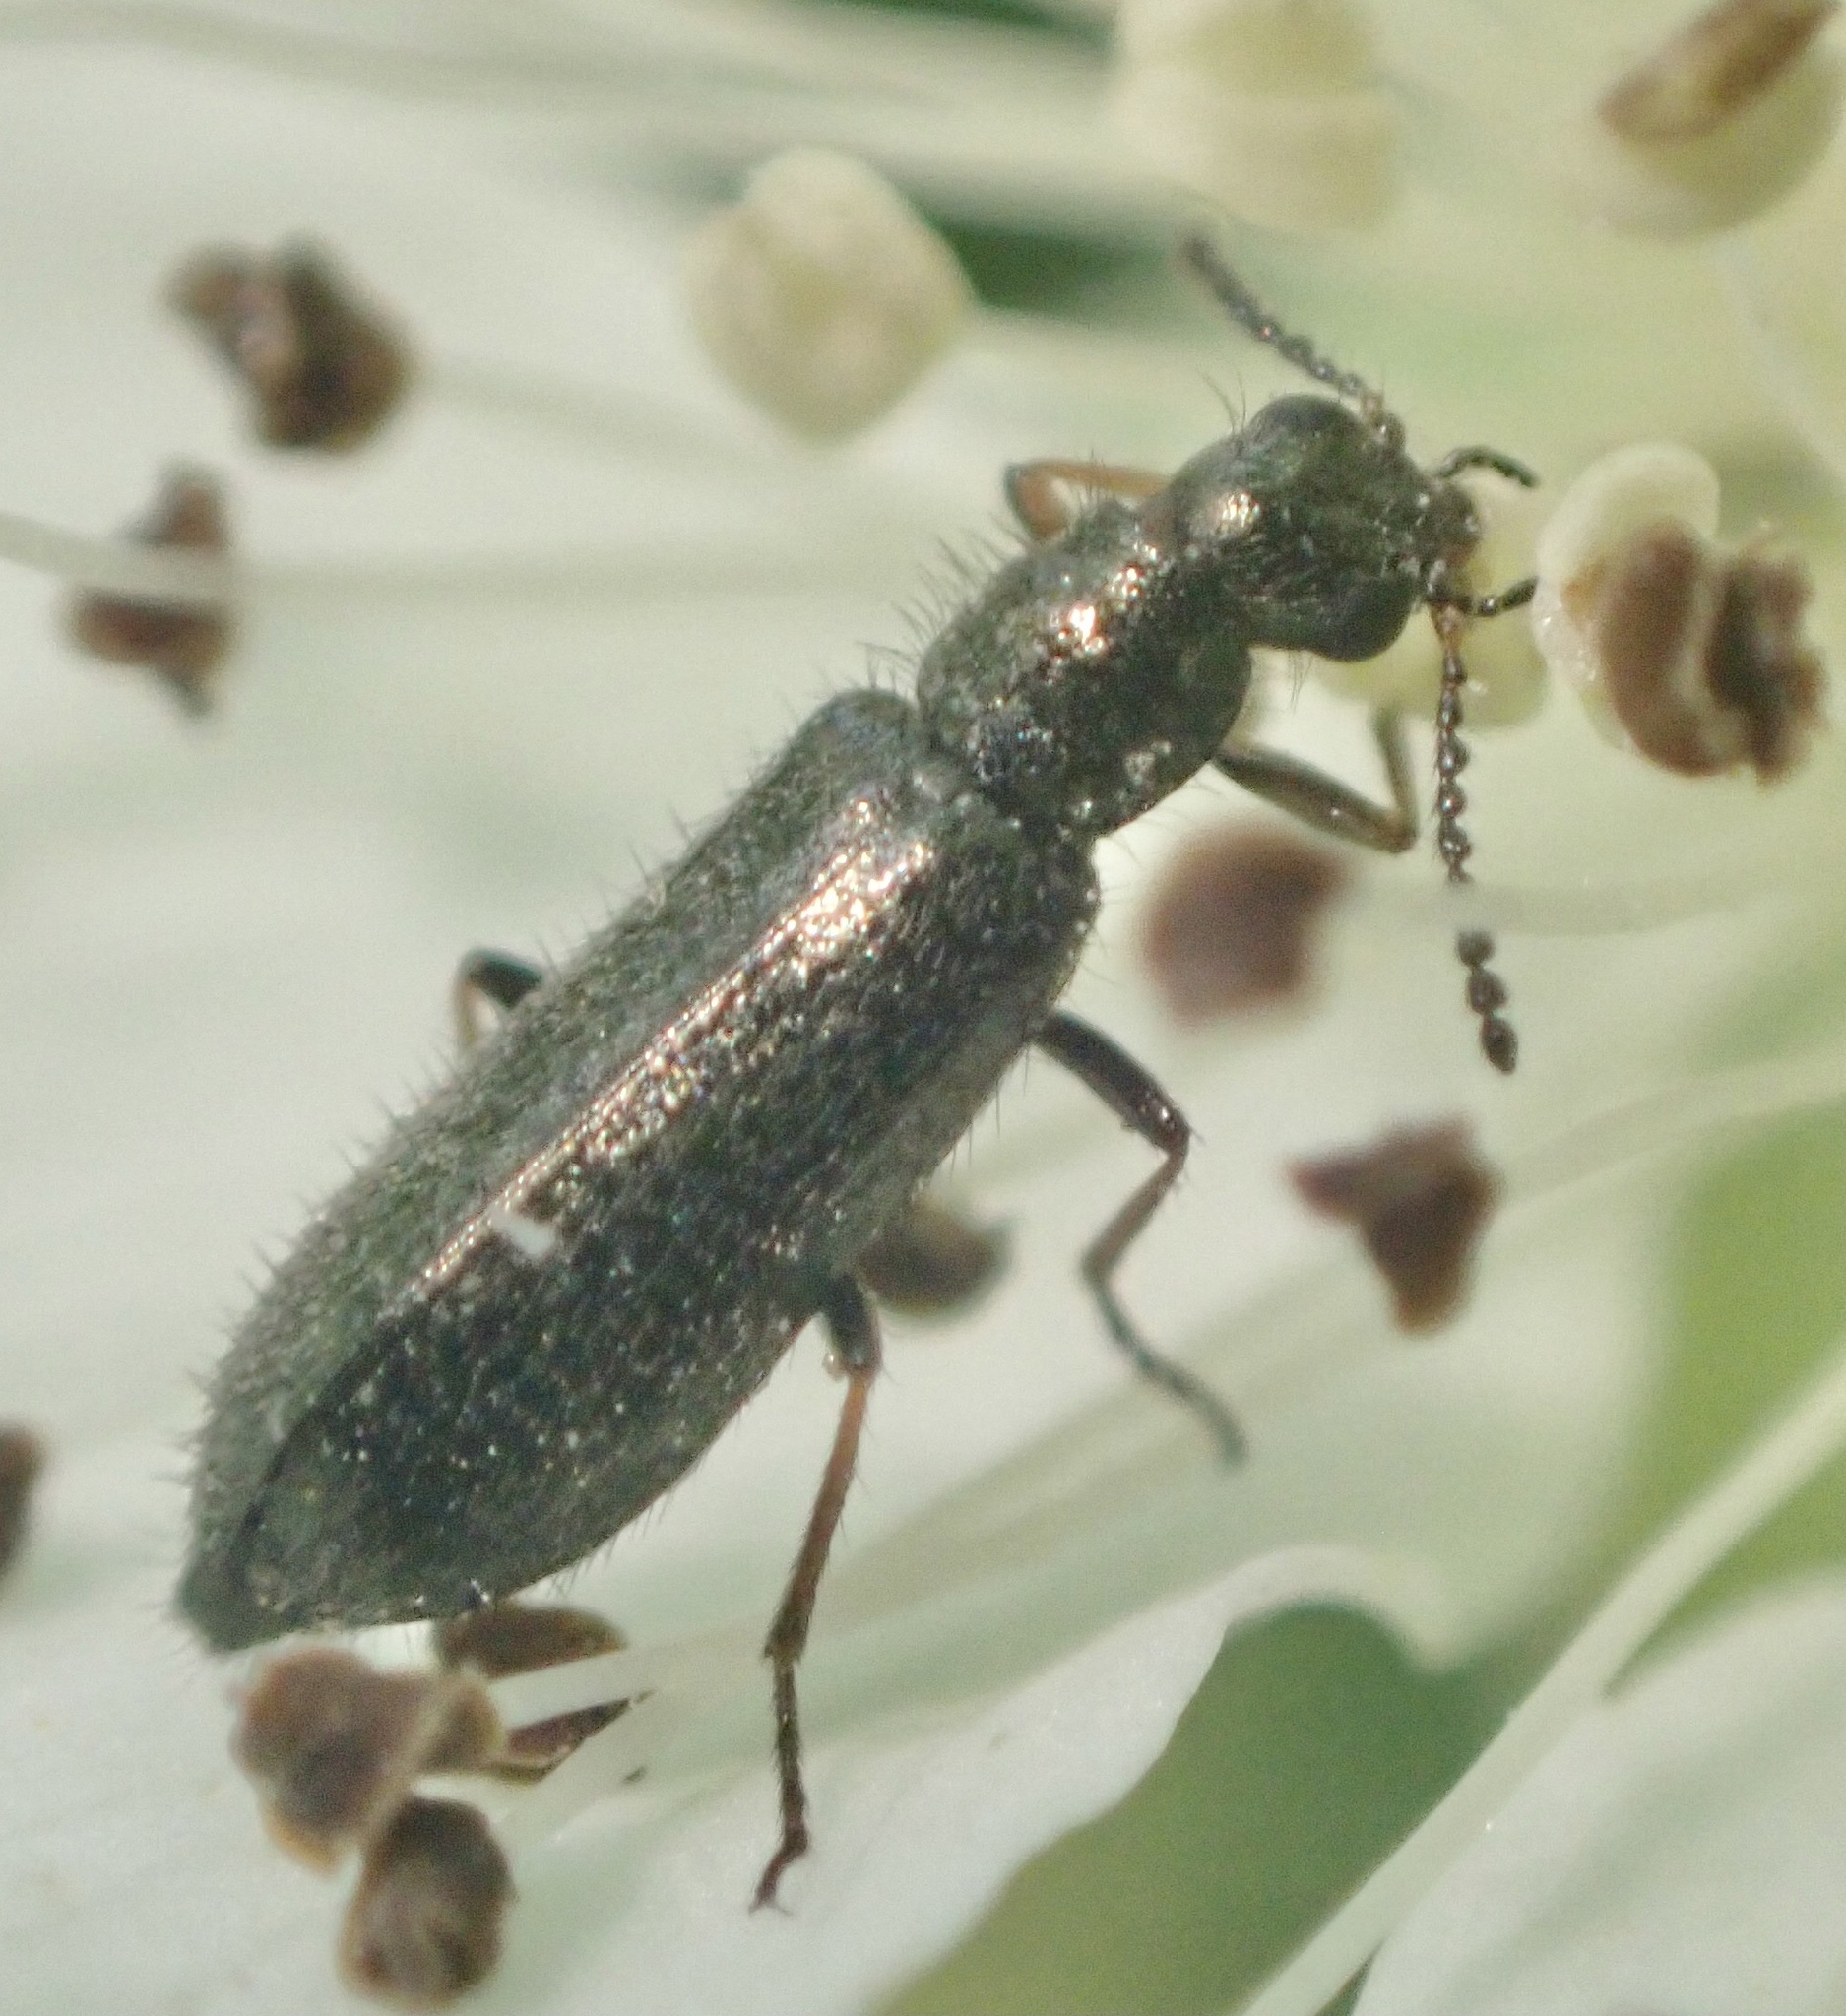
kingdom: Animalia
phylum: Arthropoda
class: Insecta
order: Coleoptera
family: Melyridae
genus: Dasytes
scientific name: Dasytes plumbeus
